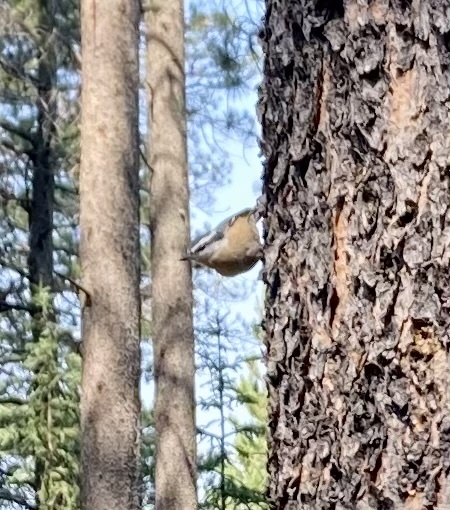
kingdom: Animalia
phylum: Chordata
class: Aves
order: Passeriformes
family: Sittidae
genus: Sitta
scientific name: Sitta canadensis
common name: Red-breasted nuthatch
